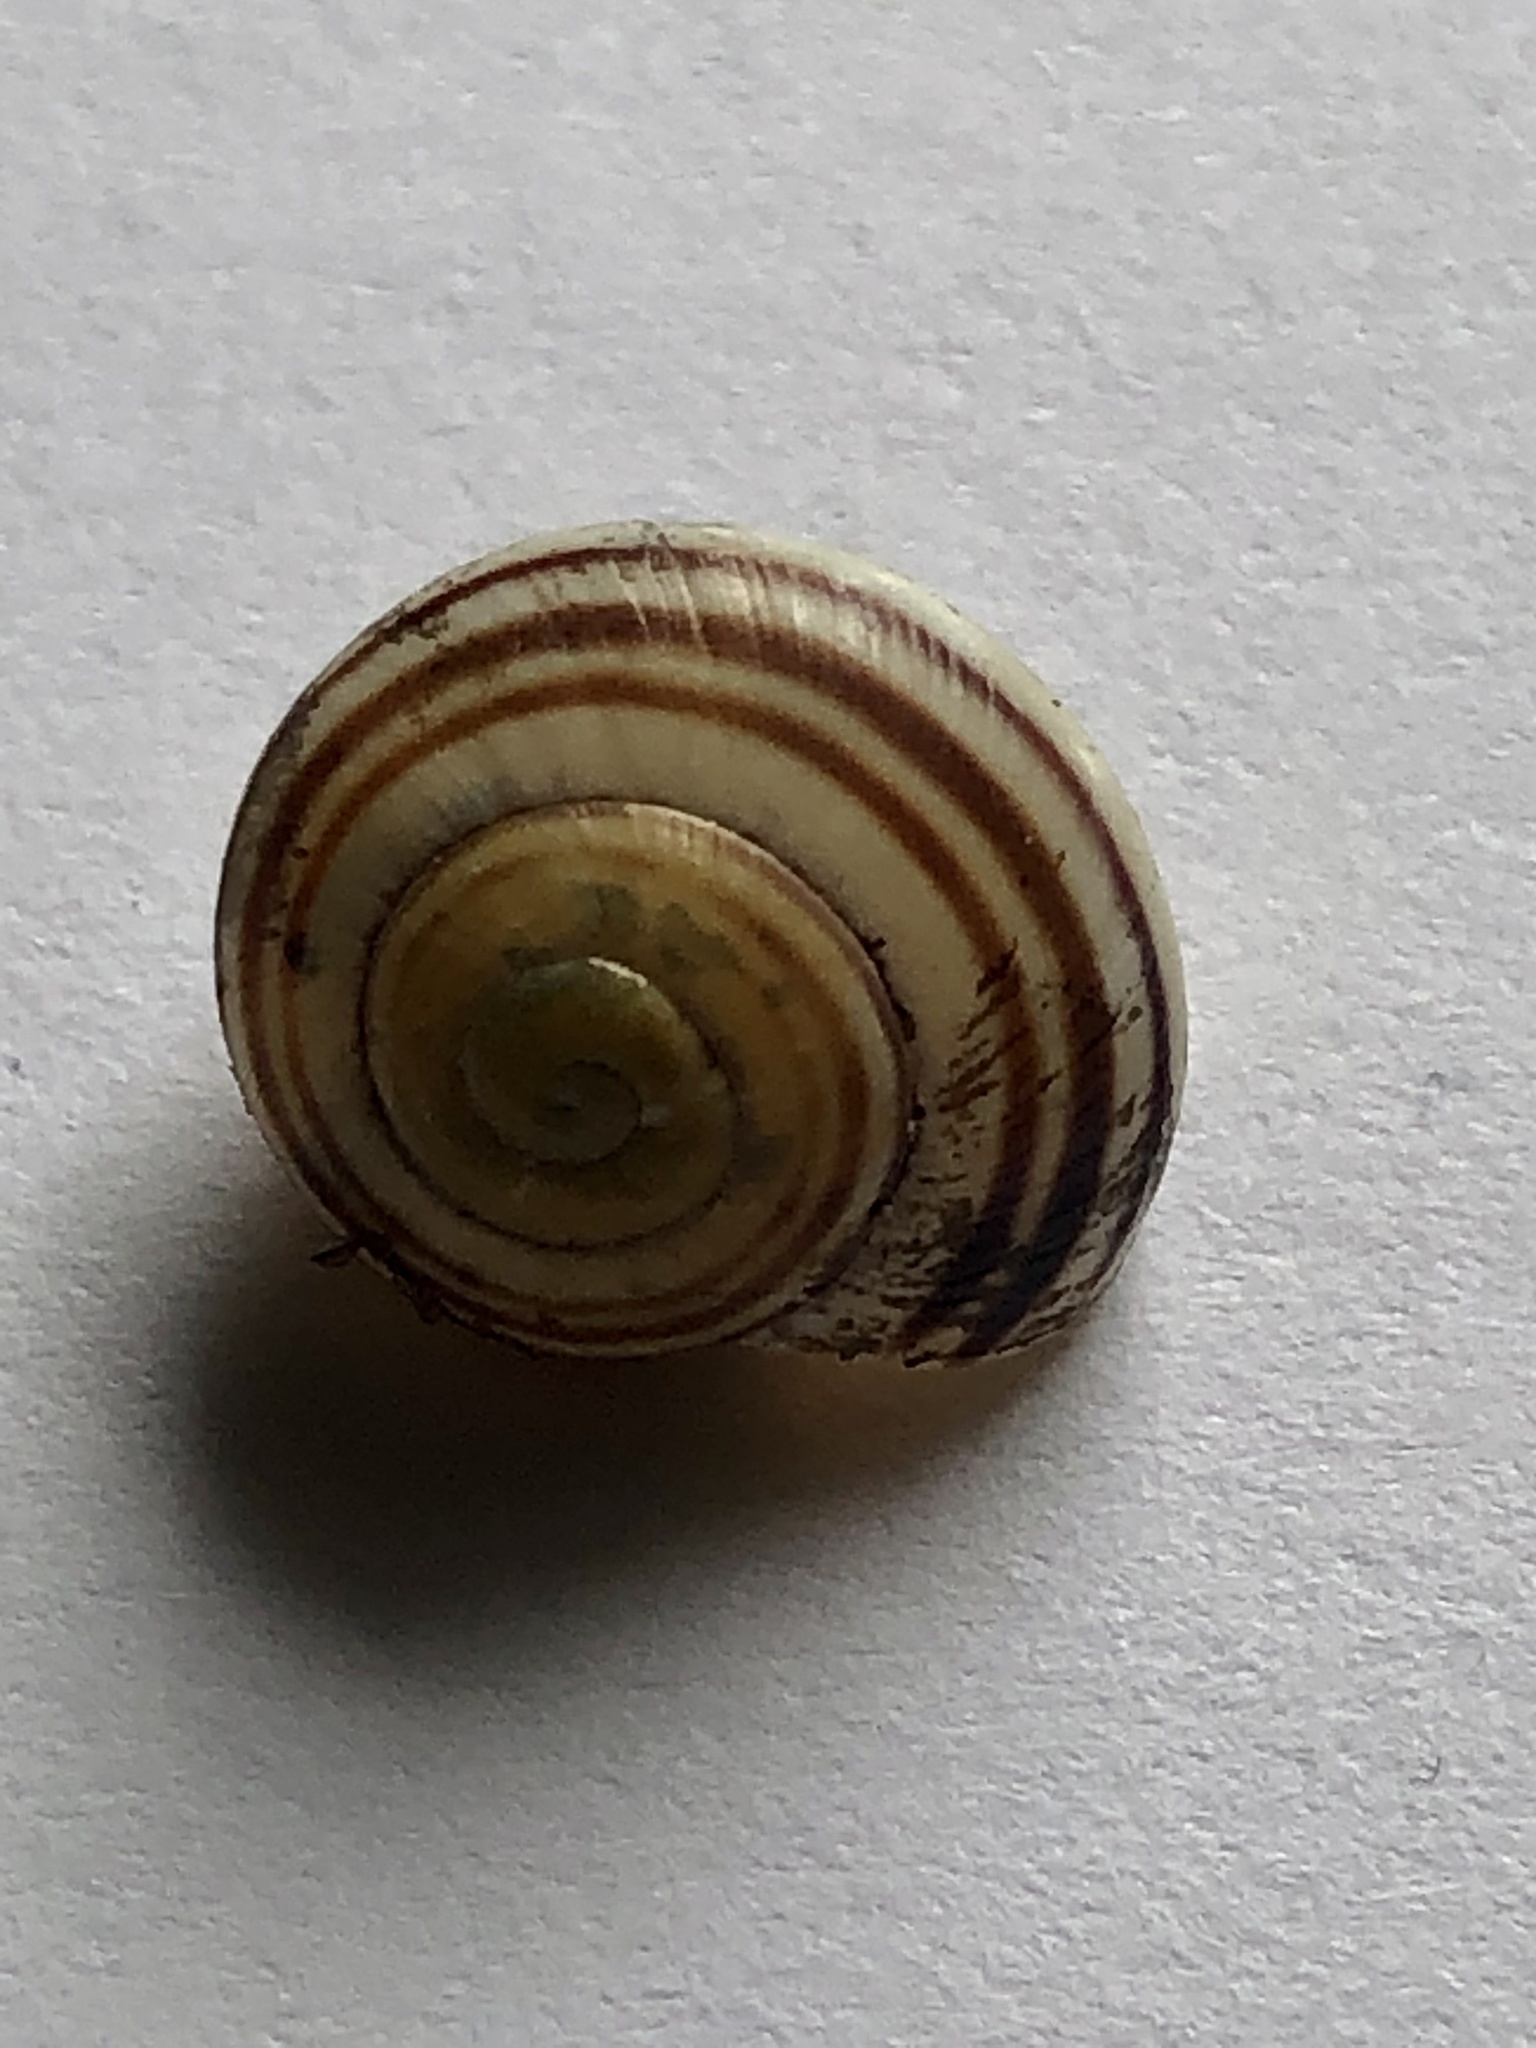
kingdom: Animalia
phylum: Mollusca
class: Gastropoda
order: Stylommatophora
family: Helicidae
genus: Cepaea
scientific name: Cepaea
